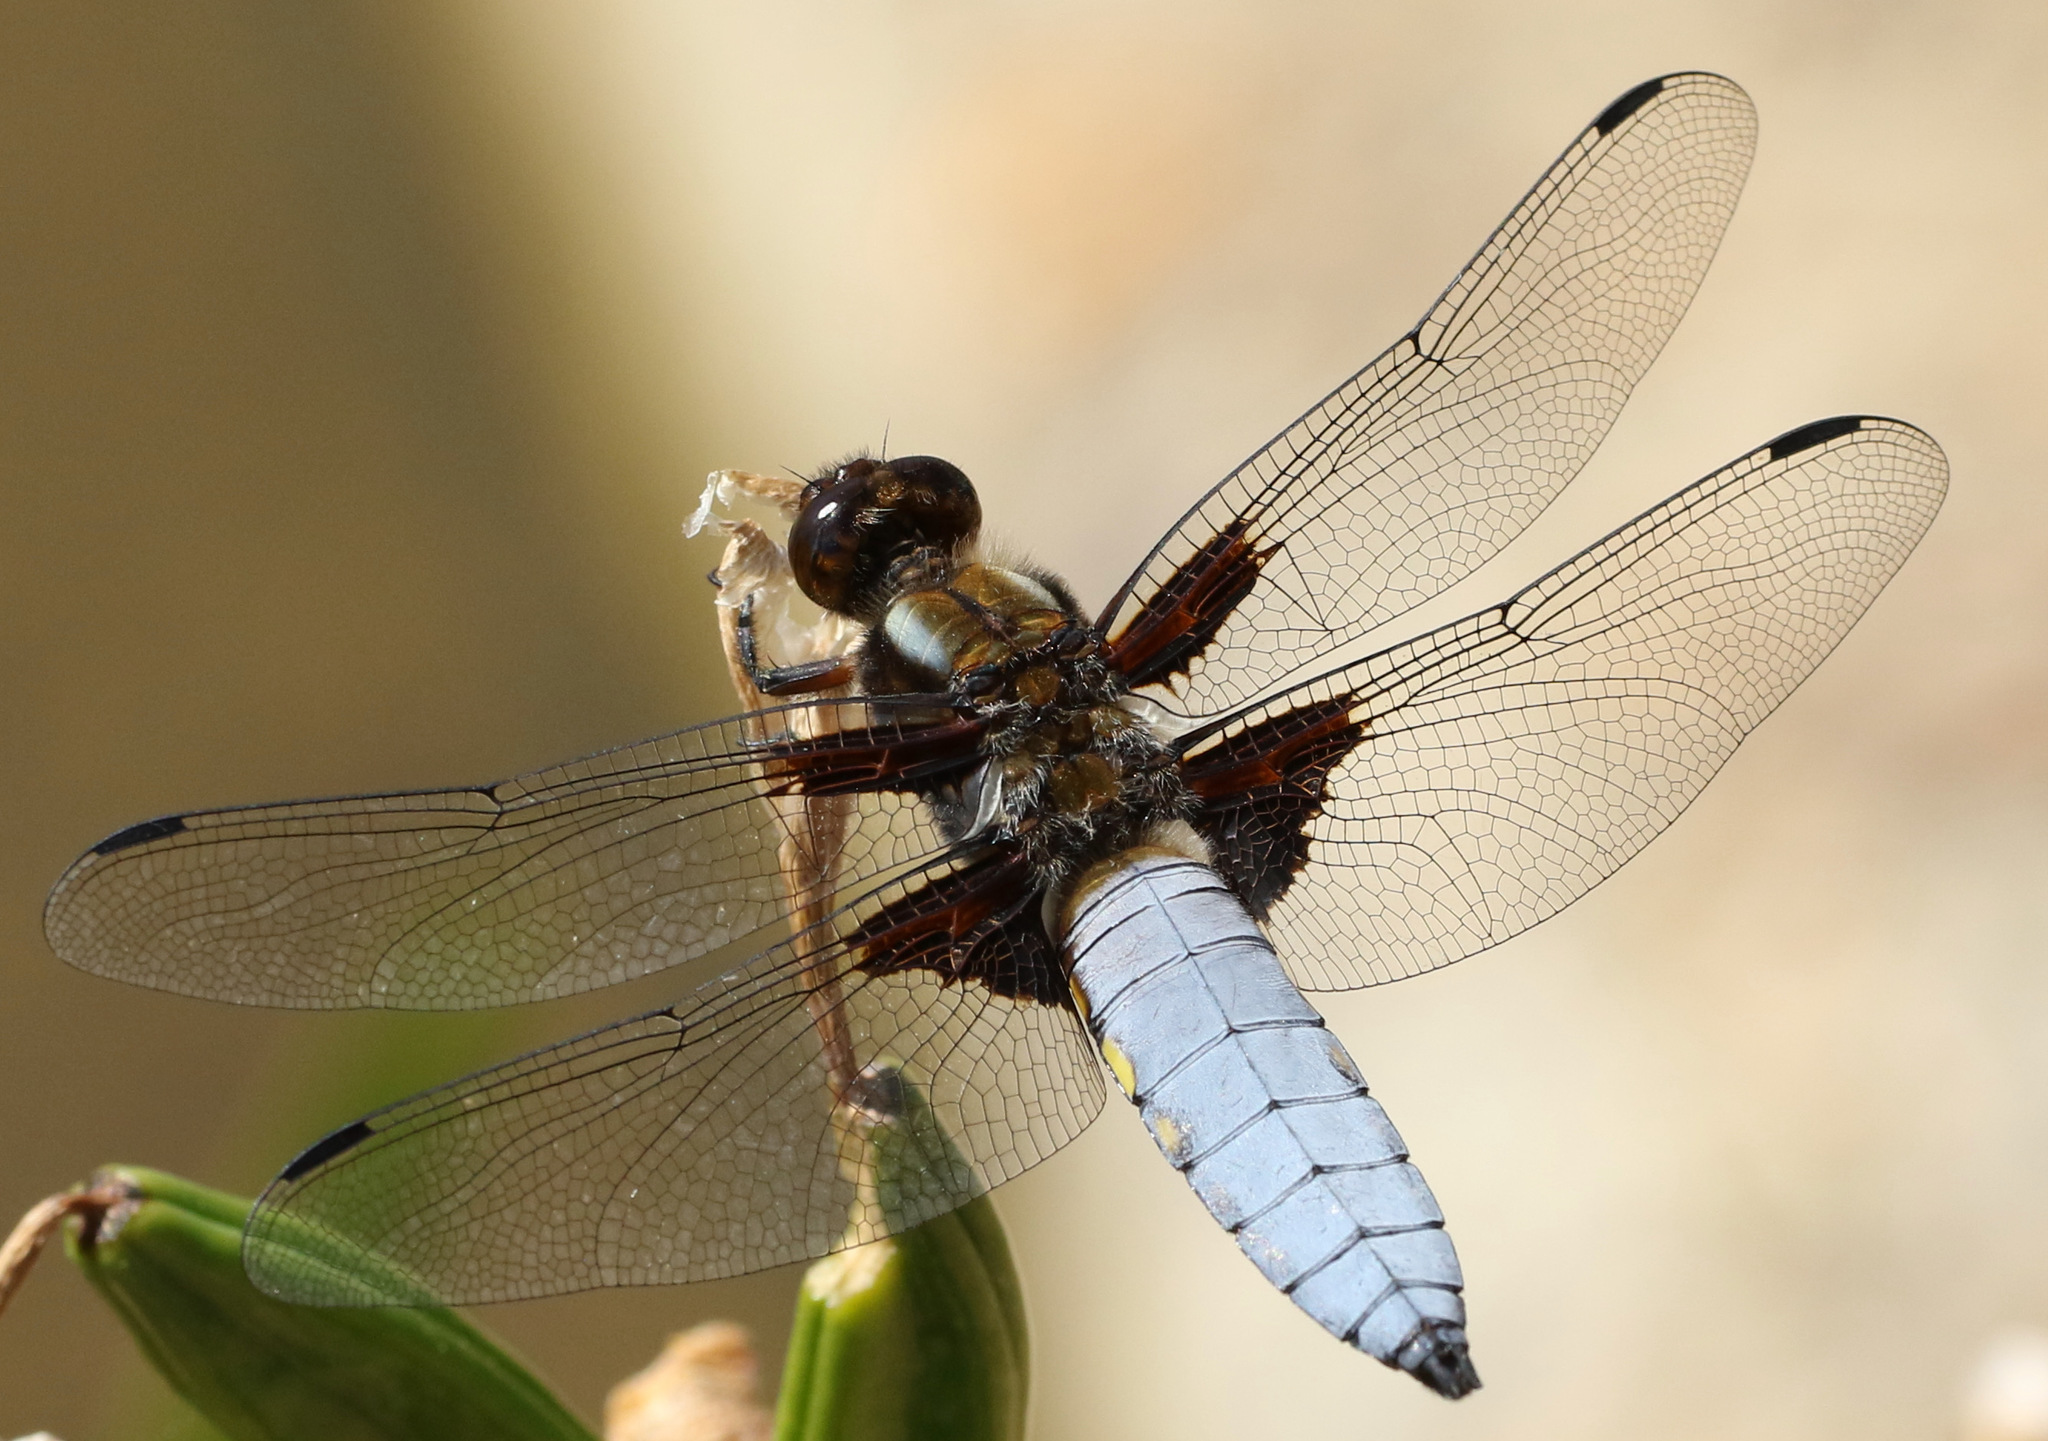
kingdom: Animalia
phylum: Arthropoda
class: Insecta
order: Odonata
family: Libellulidae
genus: Libellula
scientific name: Libellula depressa
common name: Broad-bodied chaser
